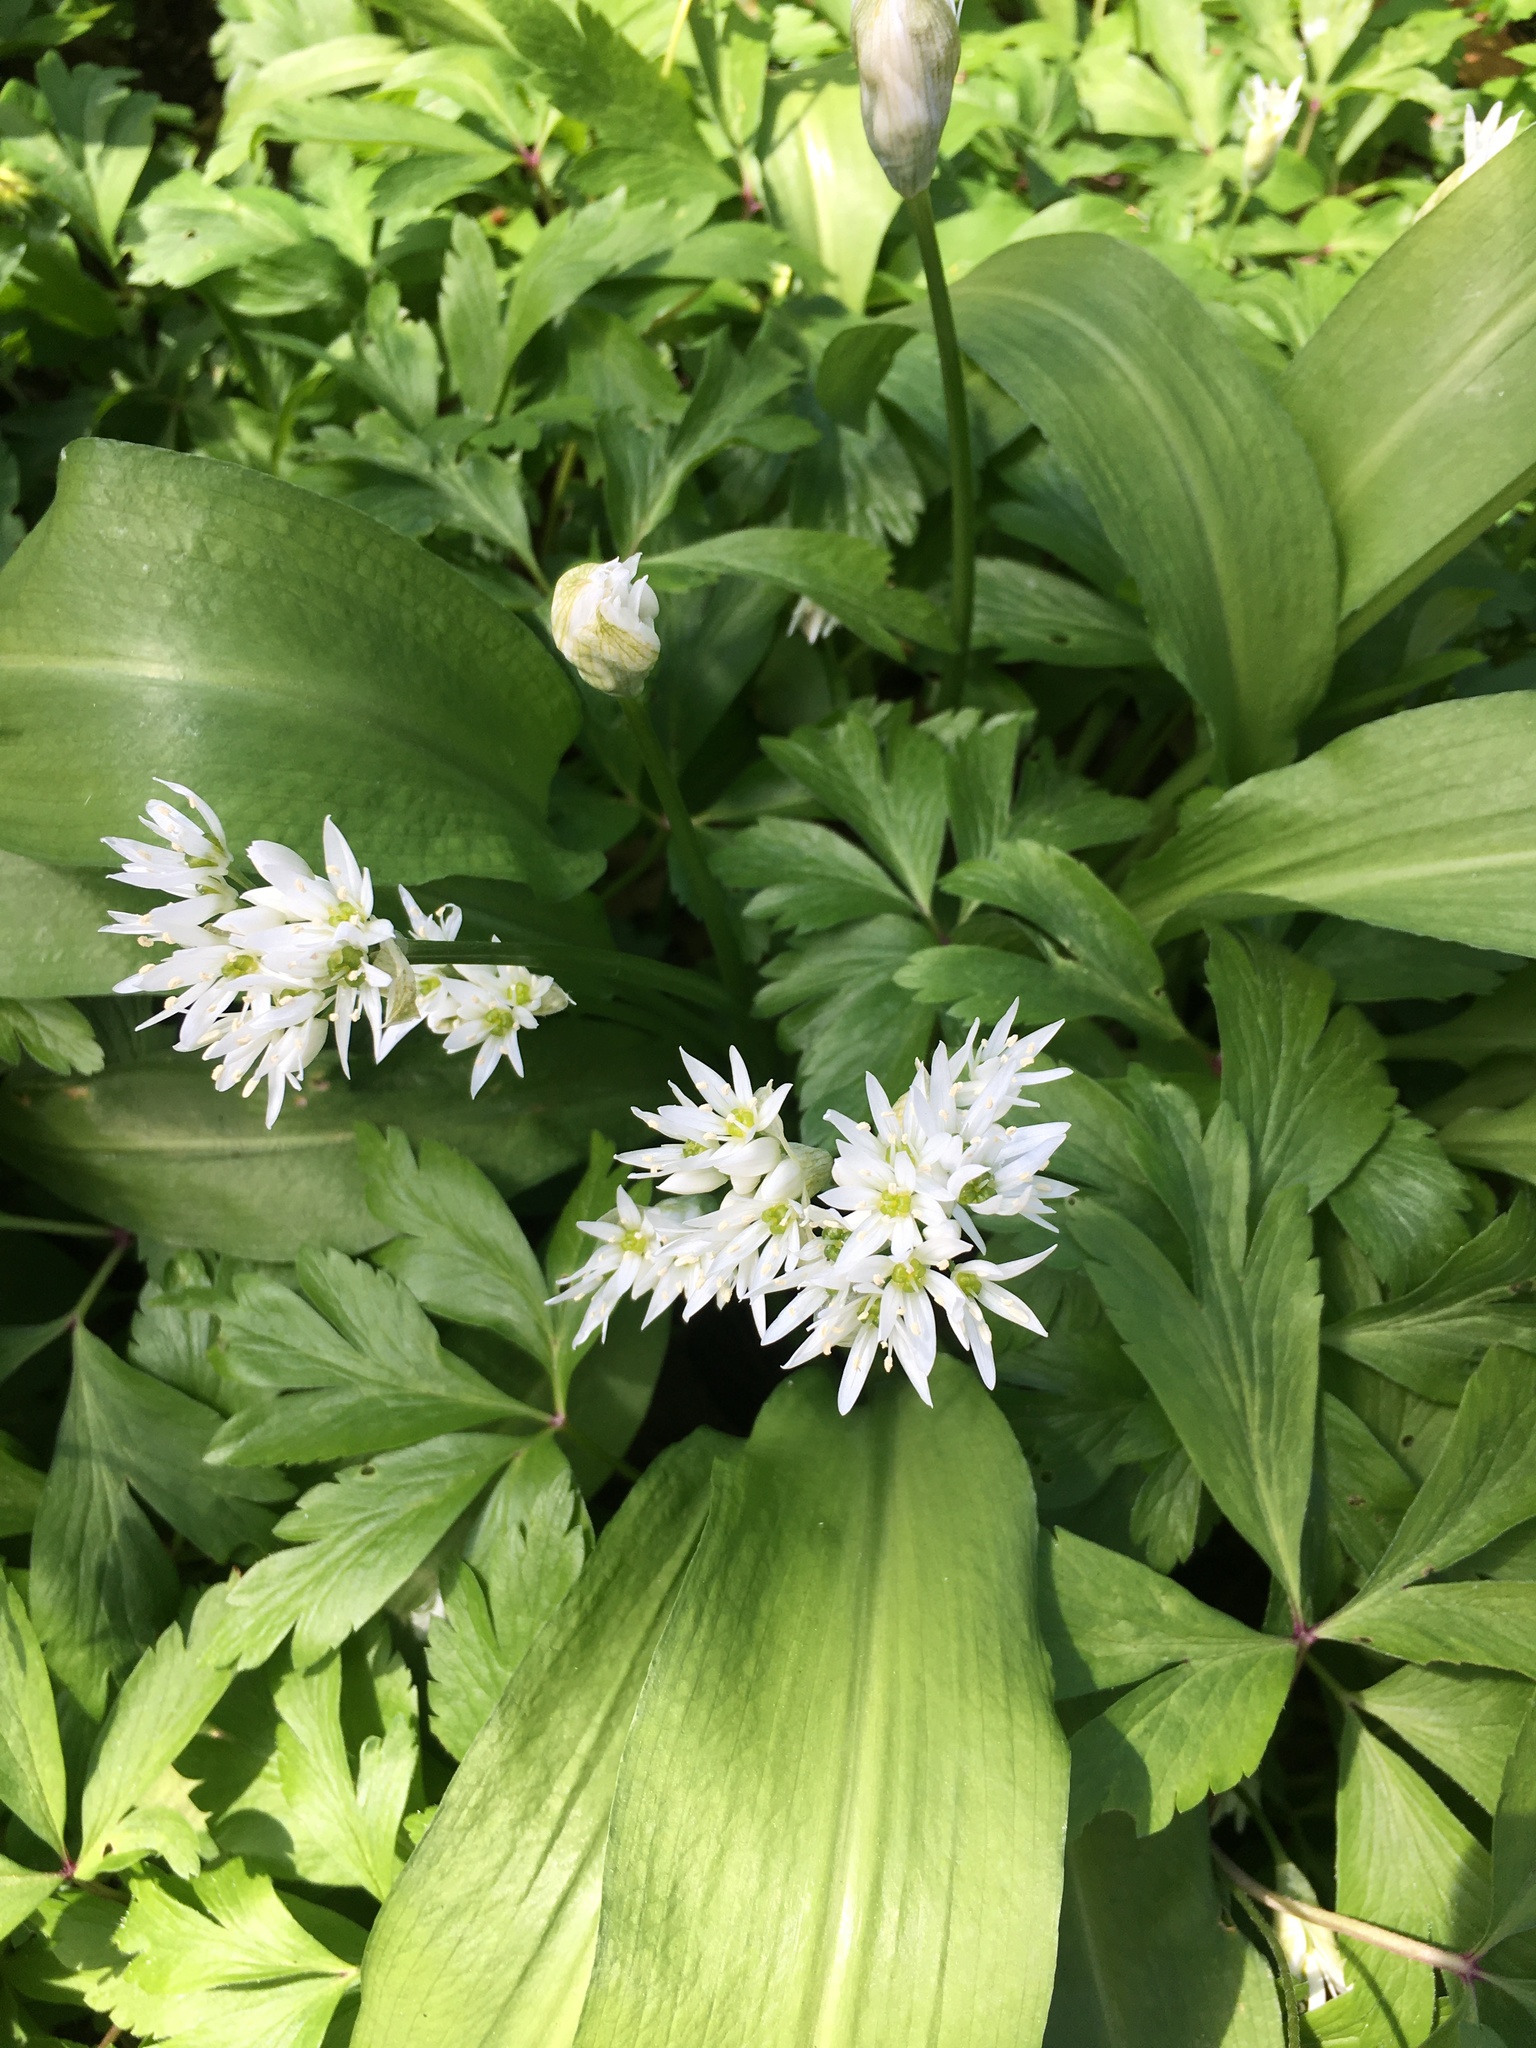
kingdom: Plantae
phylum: Tracheophyta
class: Liliopsida
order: Asparagales
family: Amaryllidaceae
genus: Allium
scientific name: Allium ursinum
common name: Ramsons
